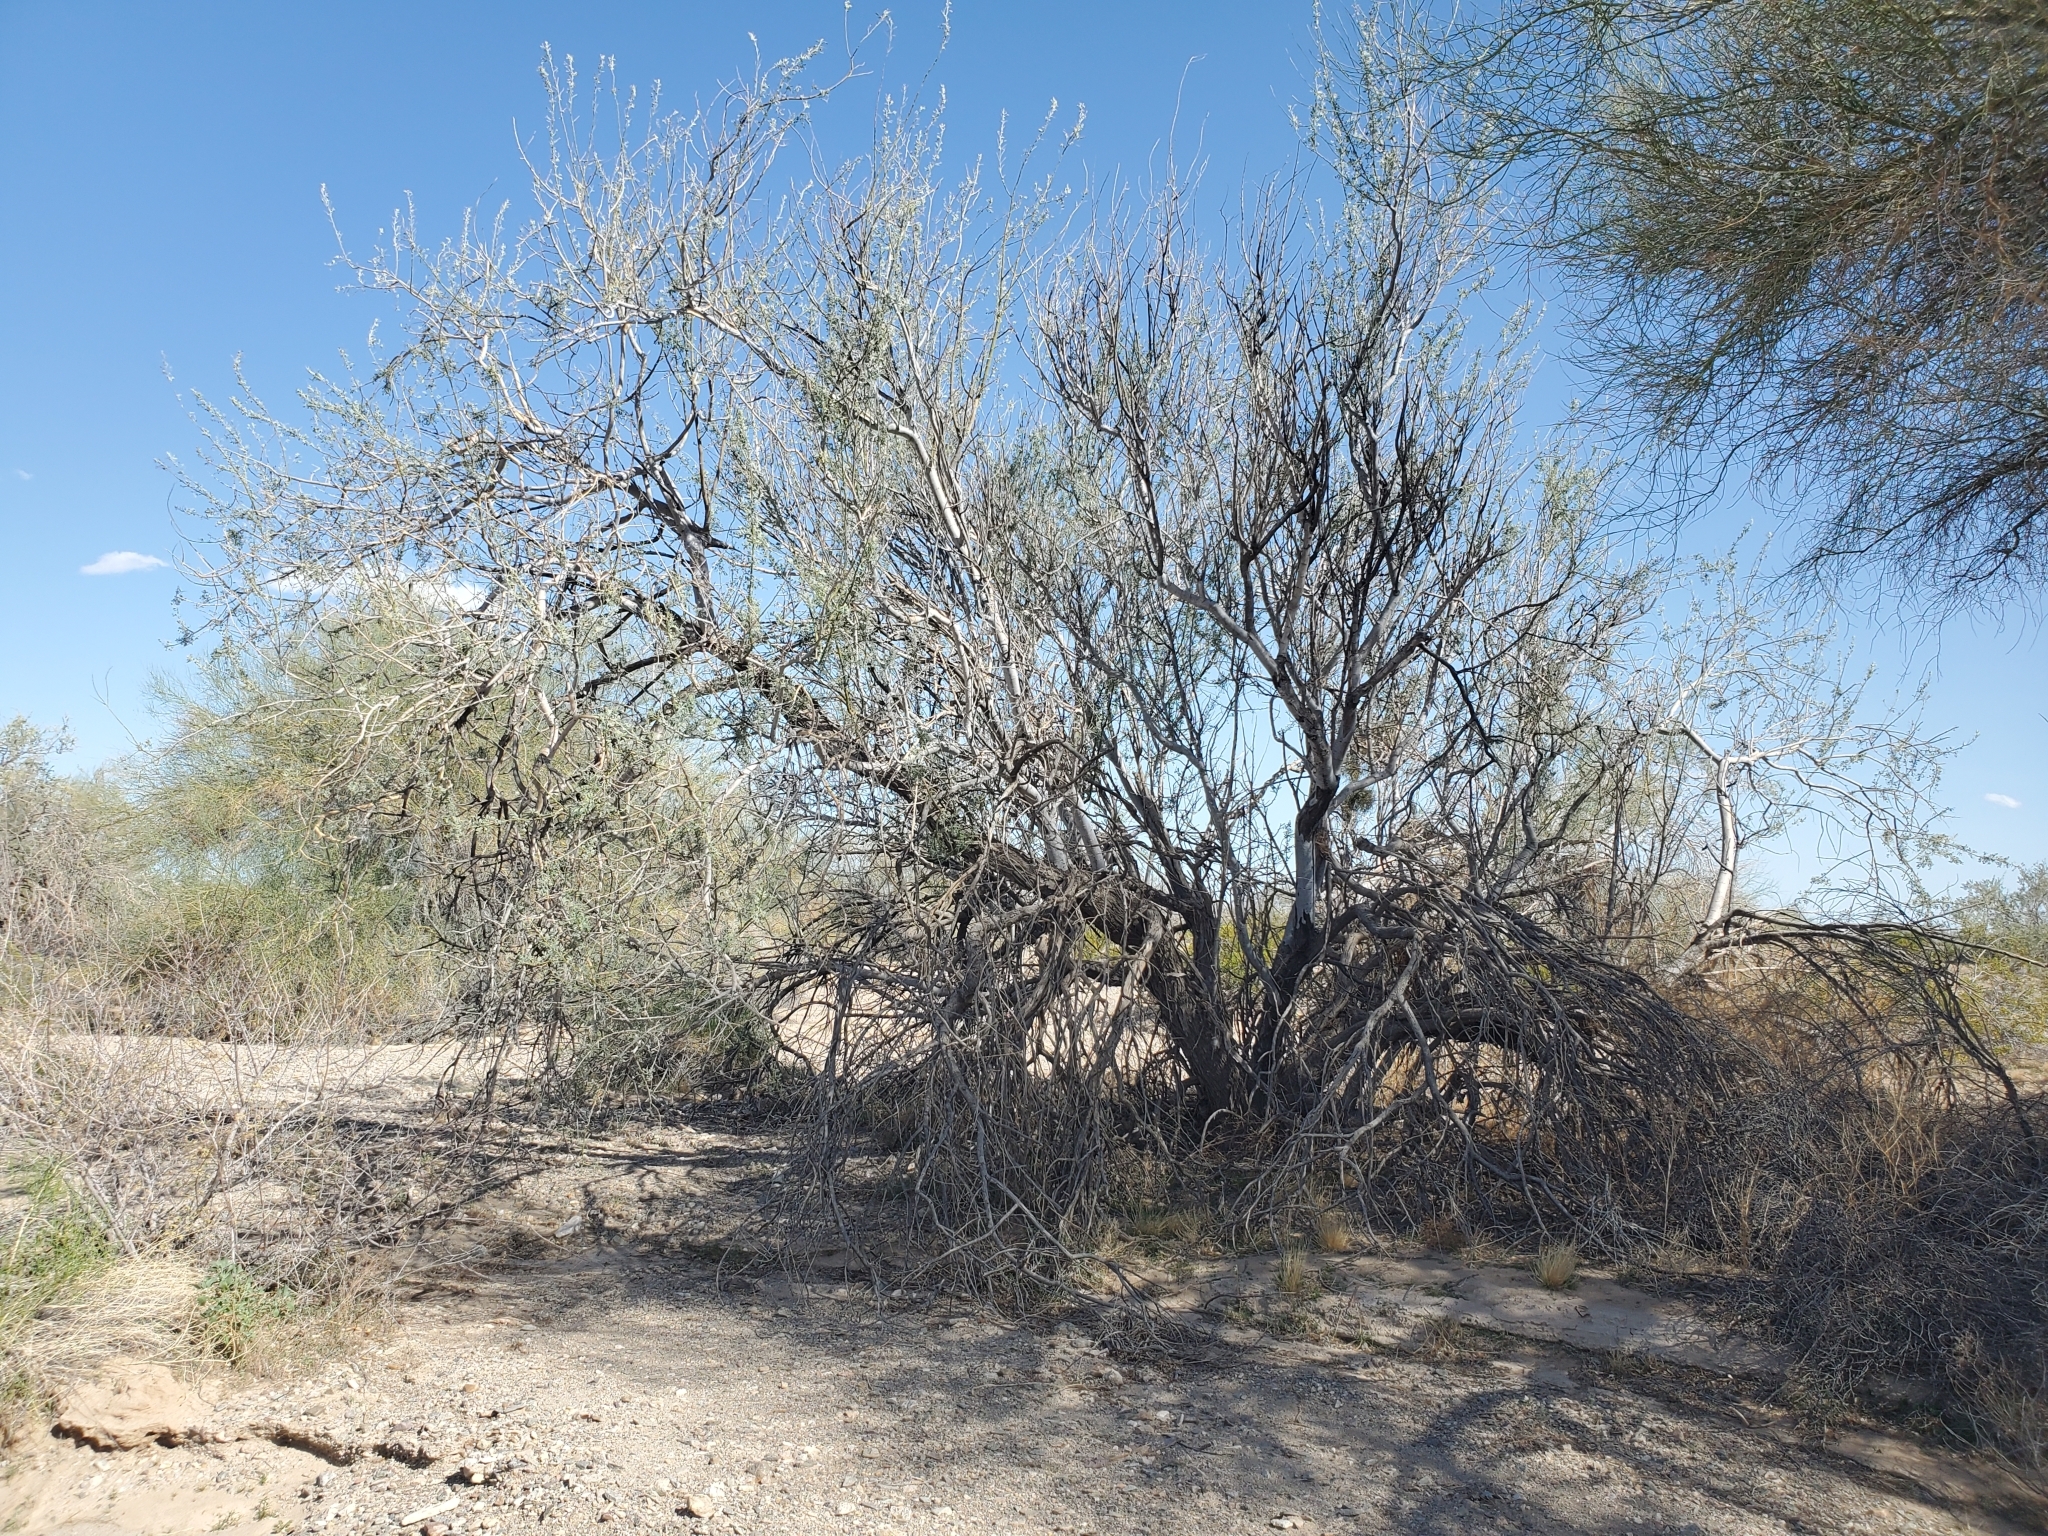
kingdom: Plantae
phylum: Tracheophyta
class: Magnoliopsida
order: Fabales
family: Fabaceae
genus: Olneya
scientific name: Olneya tesota
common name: Desert ironwood
